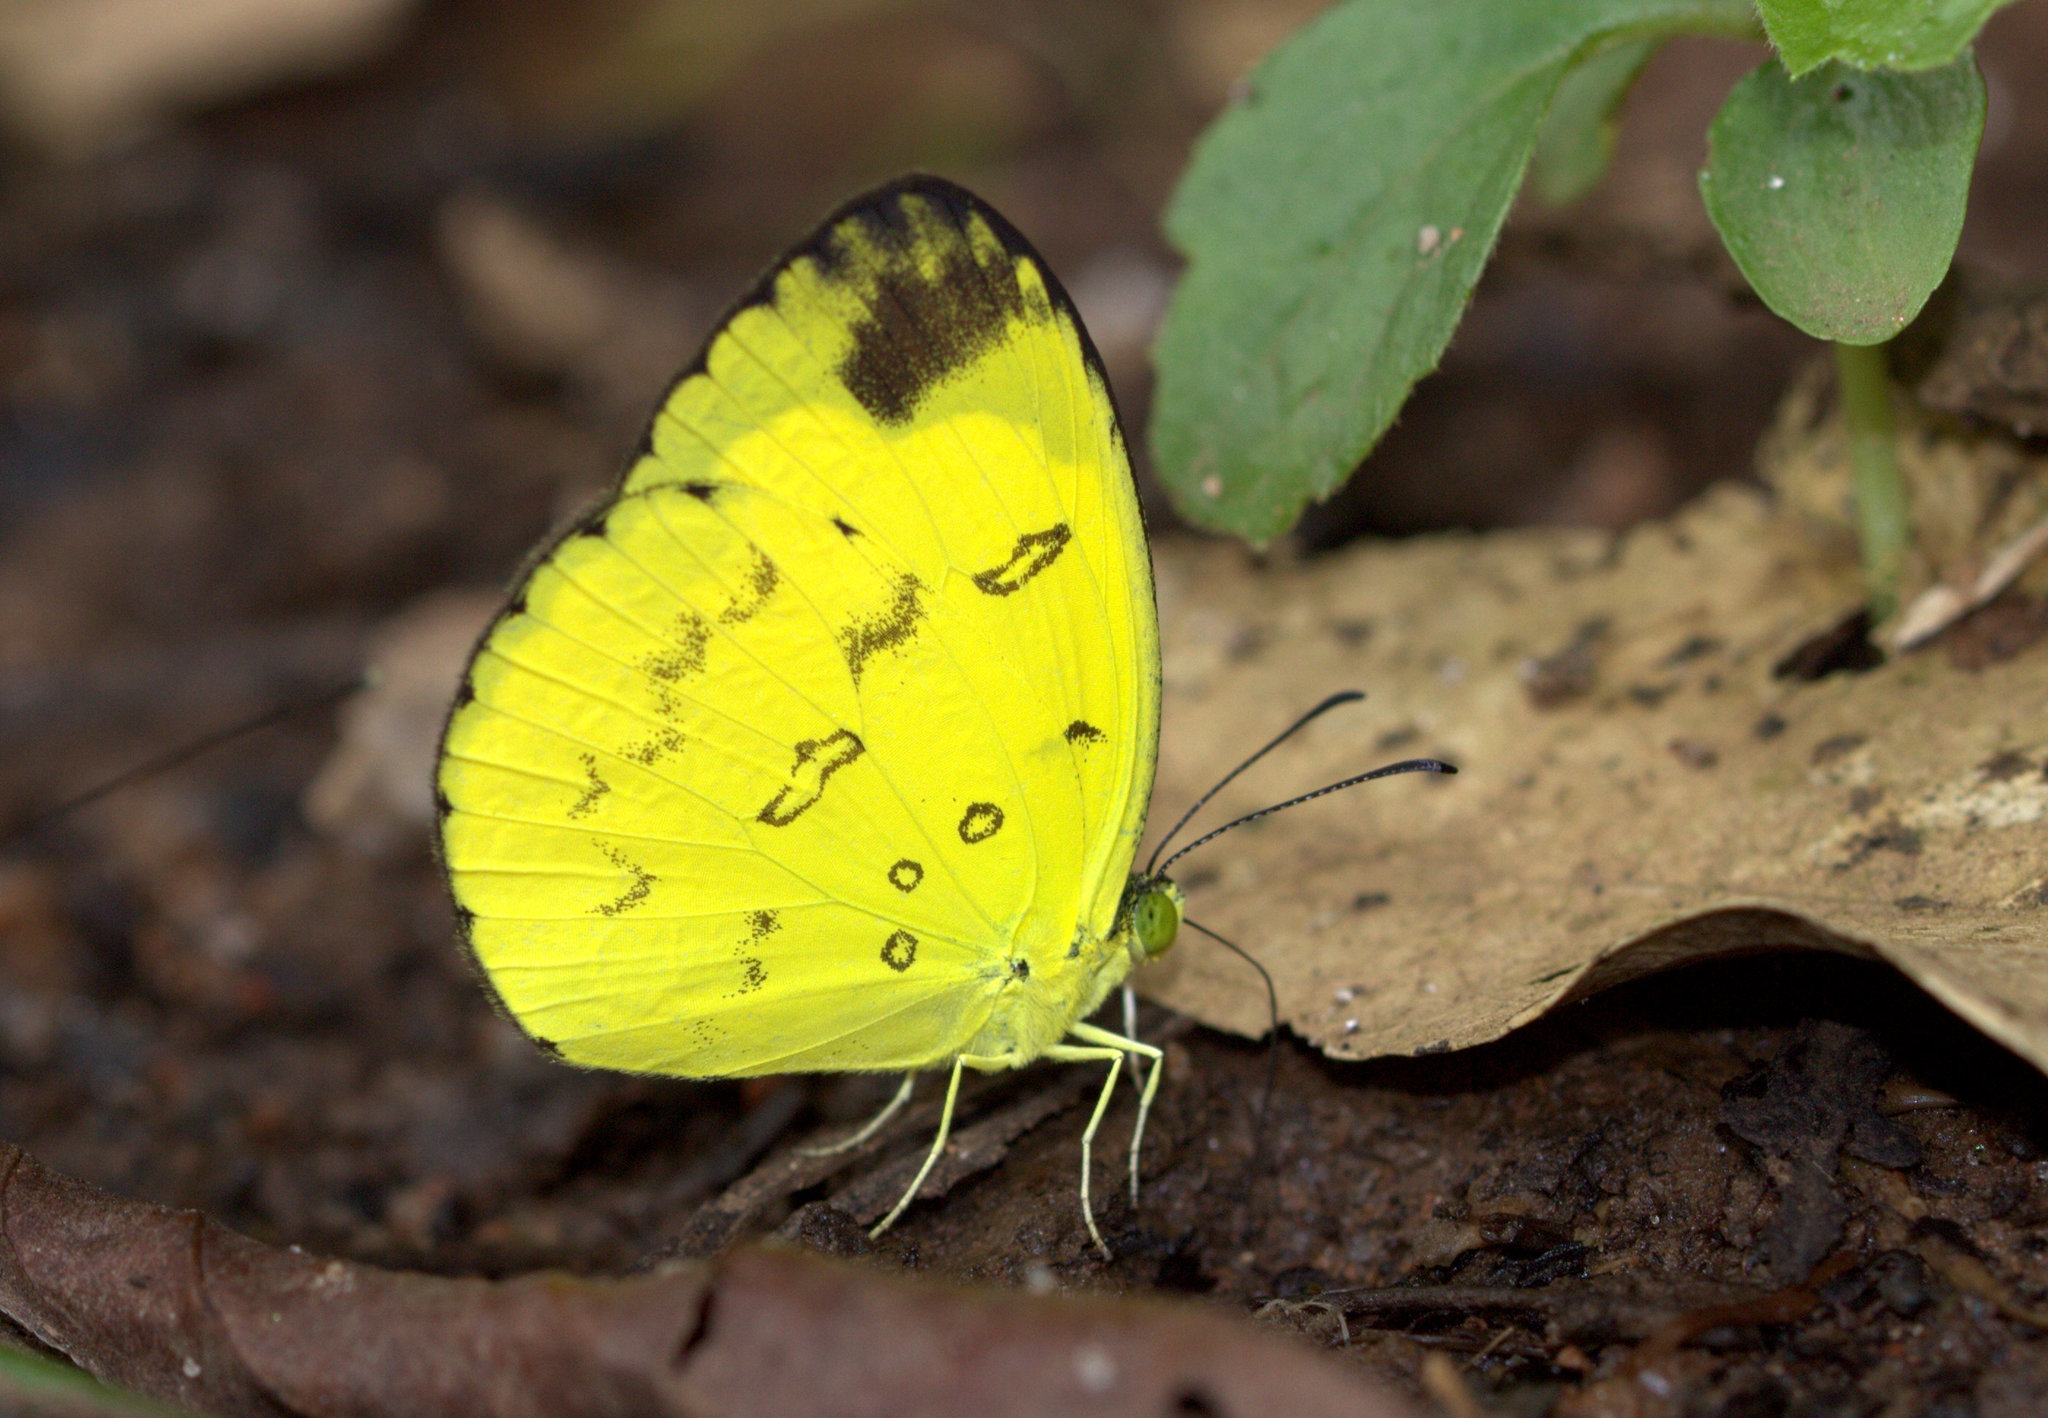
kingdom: Animalia
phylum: Arthropoda
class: Insecta
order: Lepidoptera
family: Pieridae
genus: Eurema
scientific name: Eurema nilgiriensis
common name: Nilgiri grass yellow
